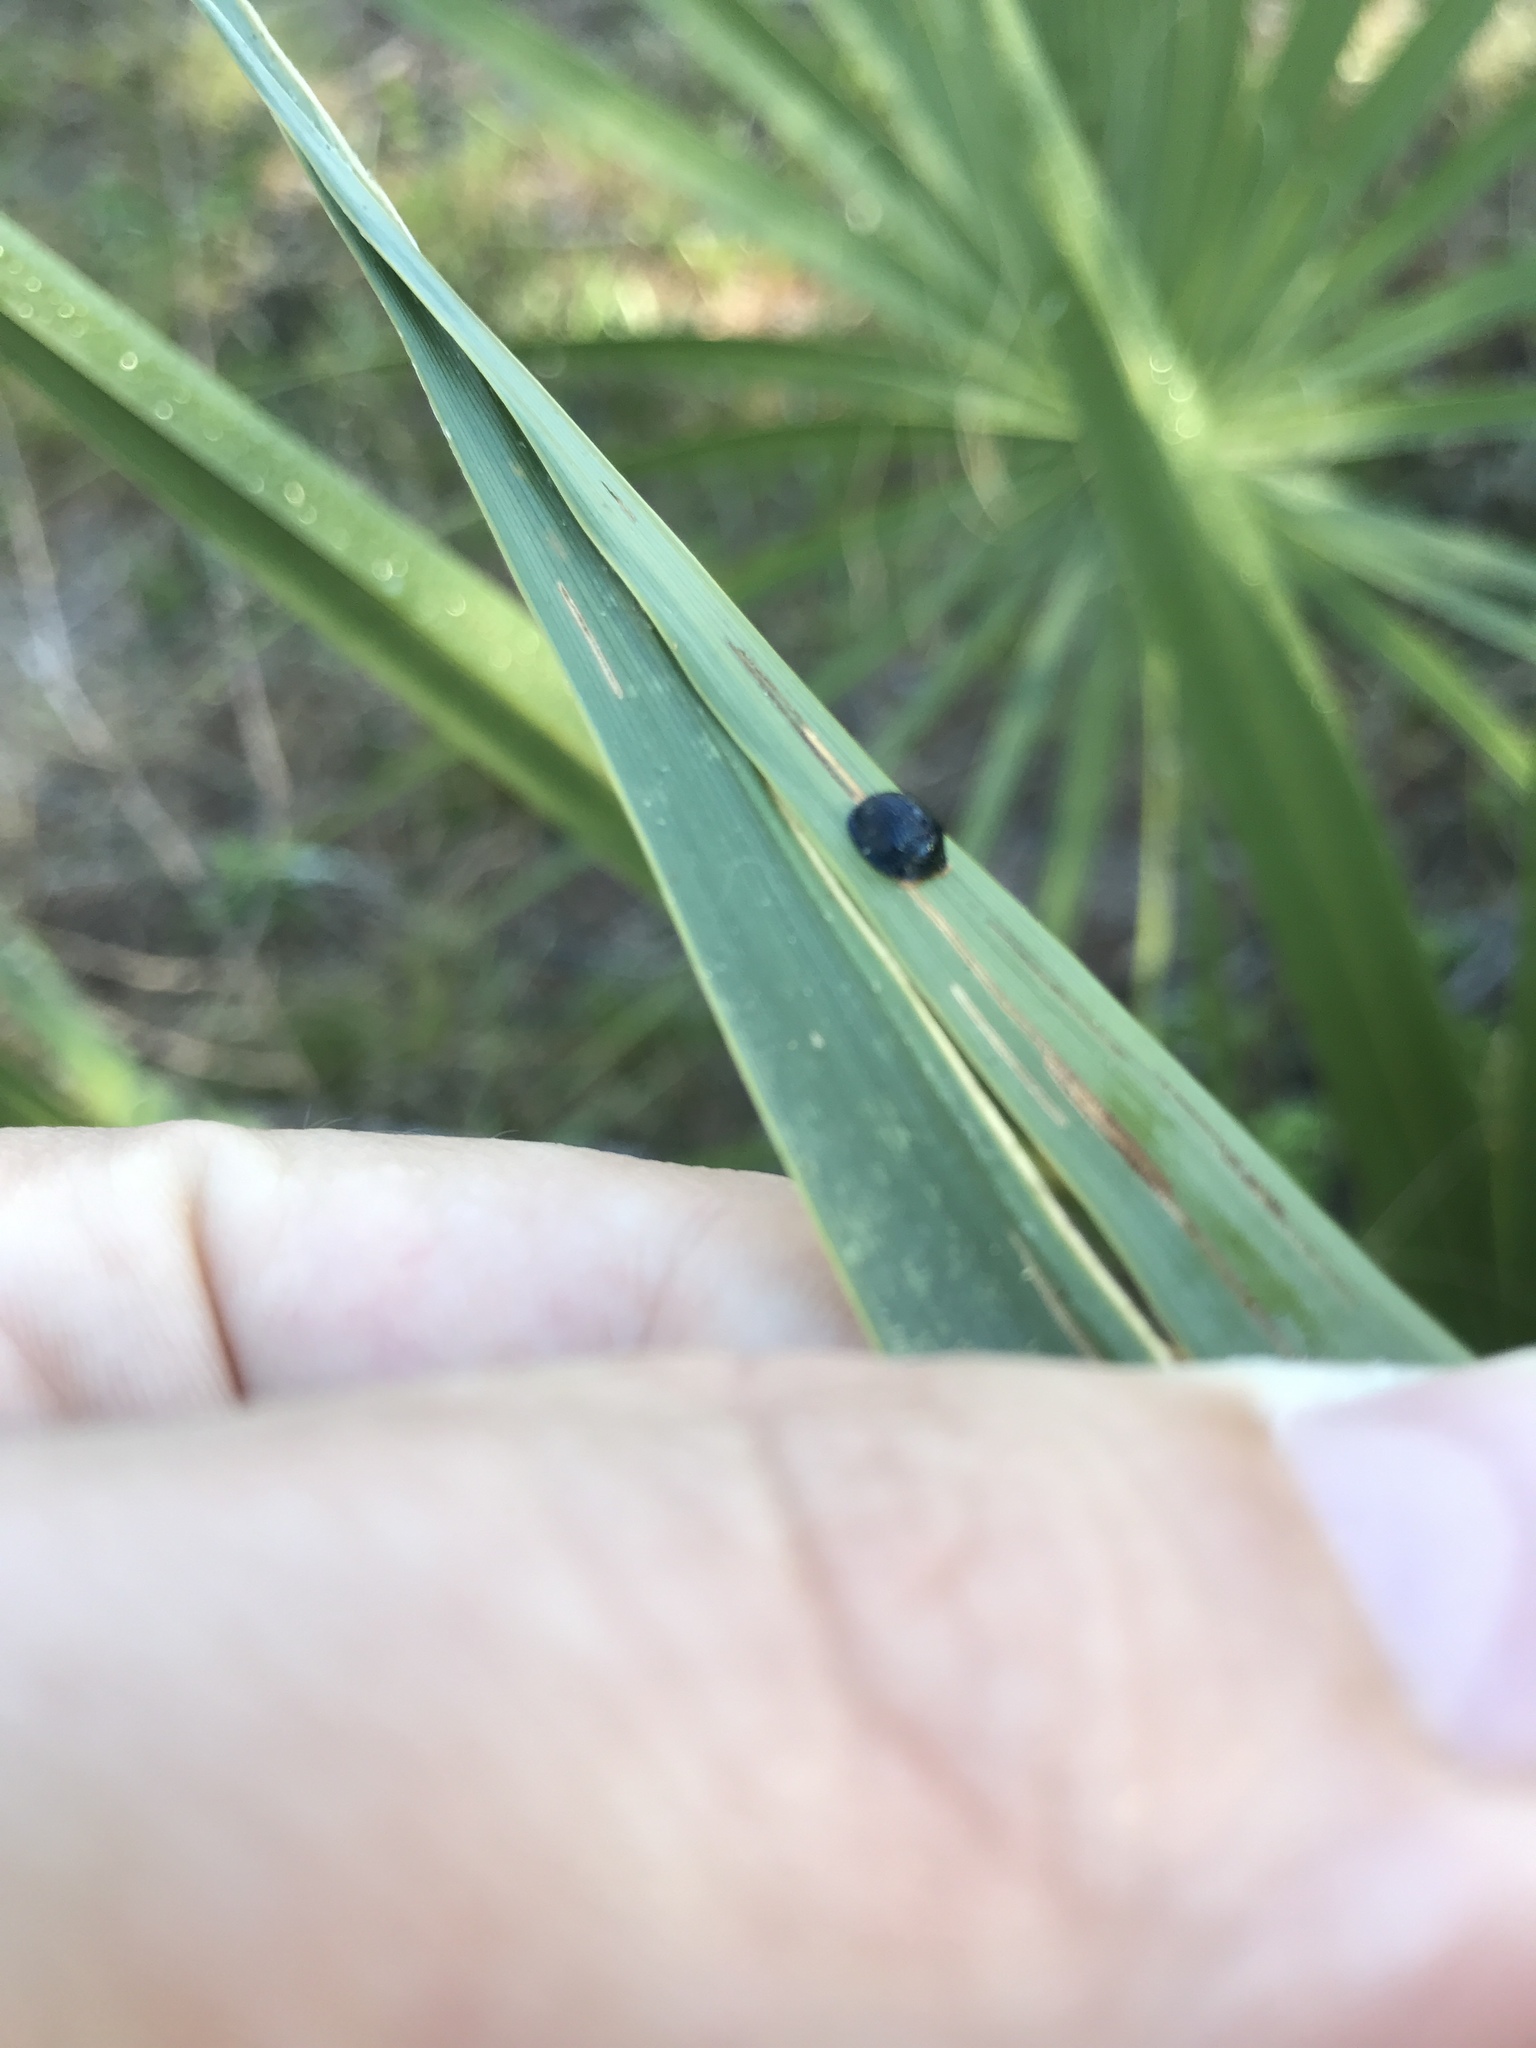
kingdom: Animalia
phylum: Arthropoda
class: Insecta
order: Coleoptera
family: Chrysomelidae
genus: Hemisphaerota
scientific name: Hemisphaerota cyanea
